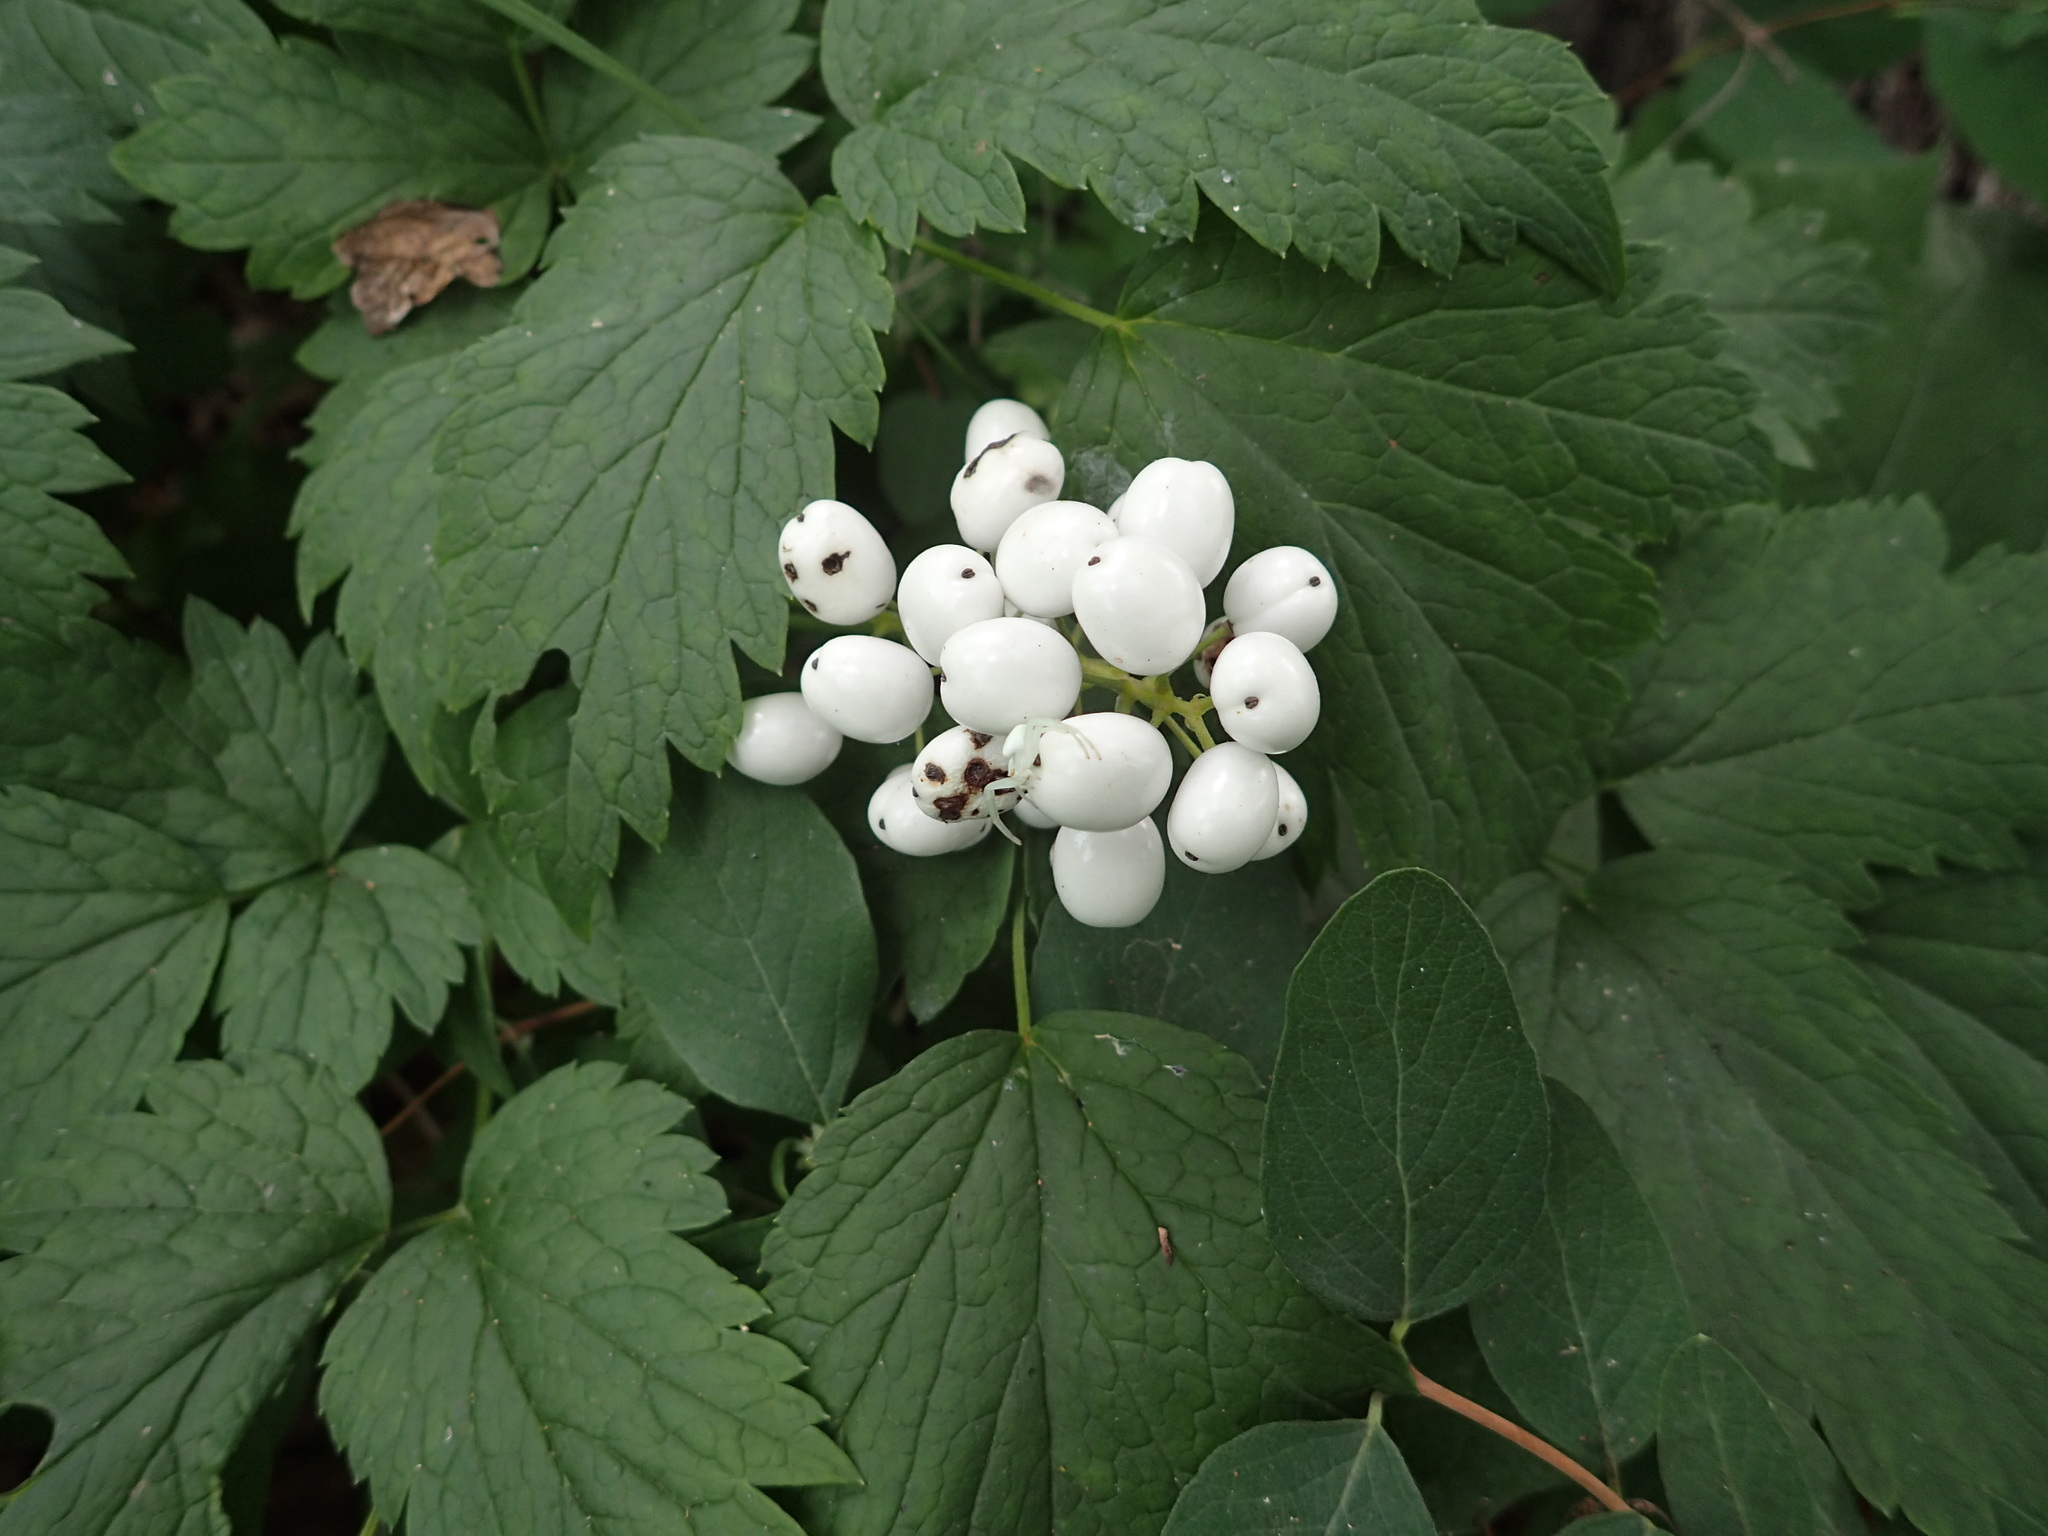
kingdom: Plantae
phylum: Tracheophyta
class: Magnoliopsida
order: Ranunculales
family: Ranunculaceae
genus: Actaea
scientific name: Actaea rubra
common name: Red baneberry
